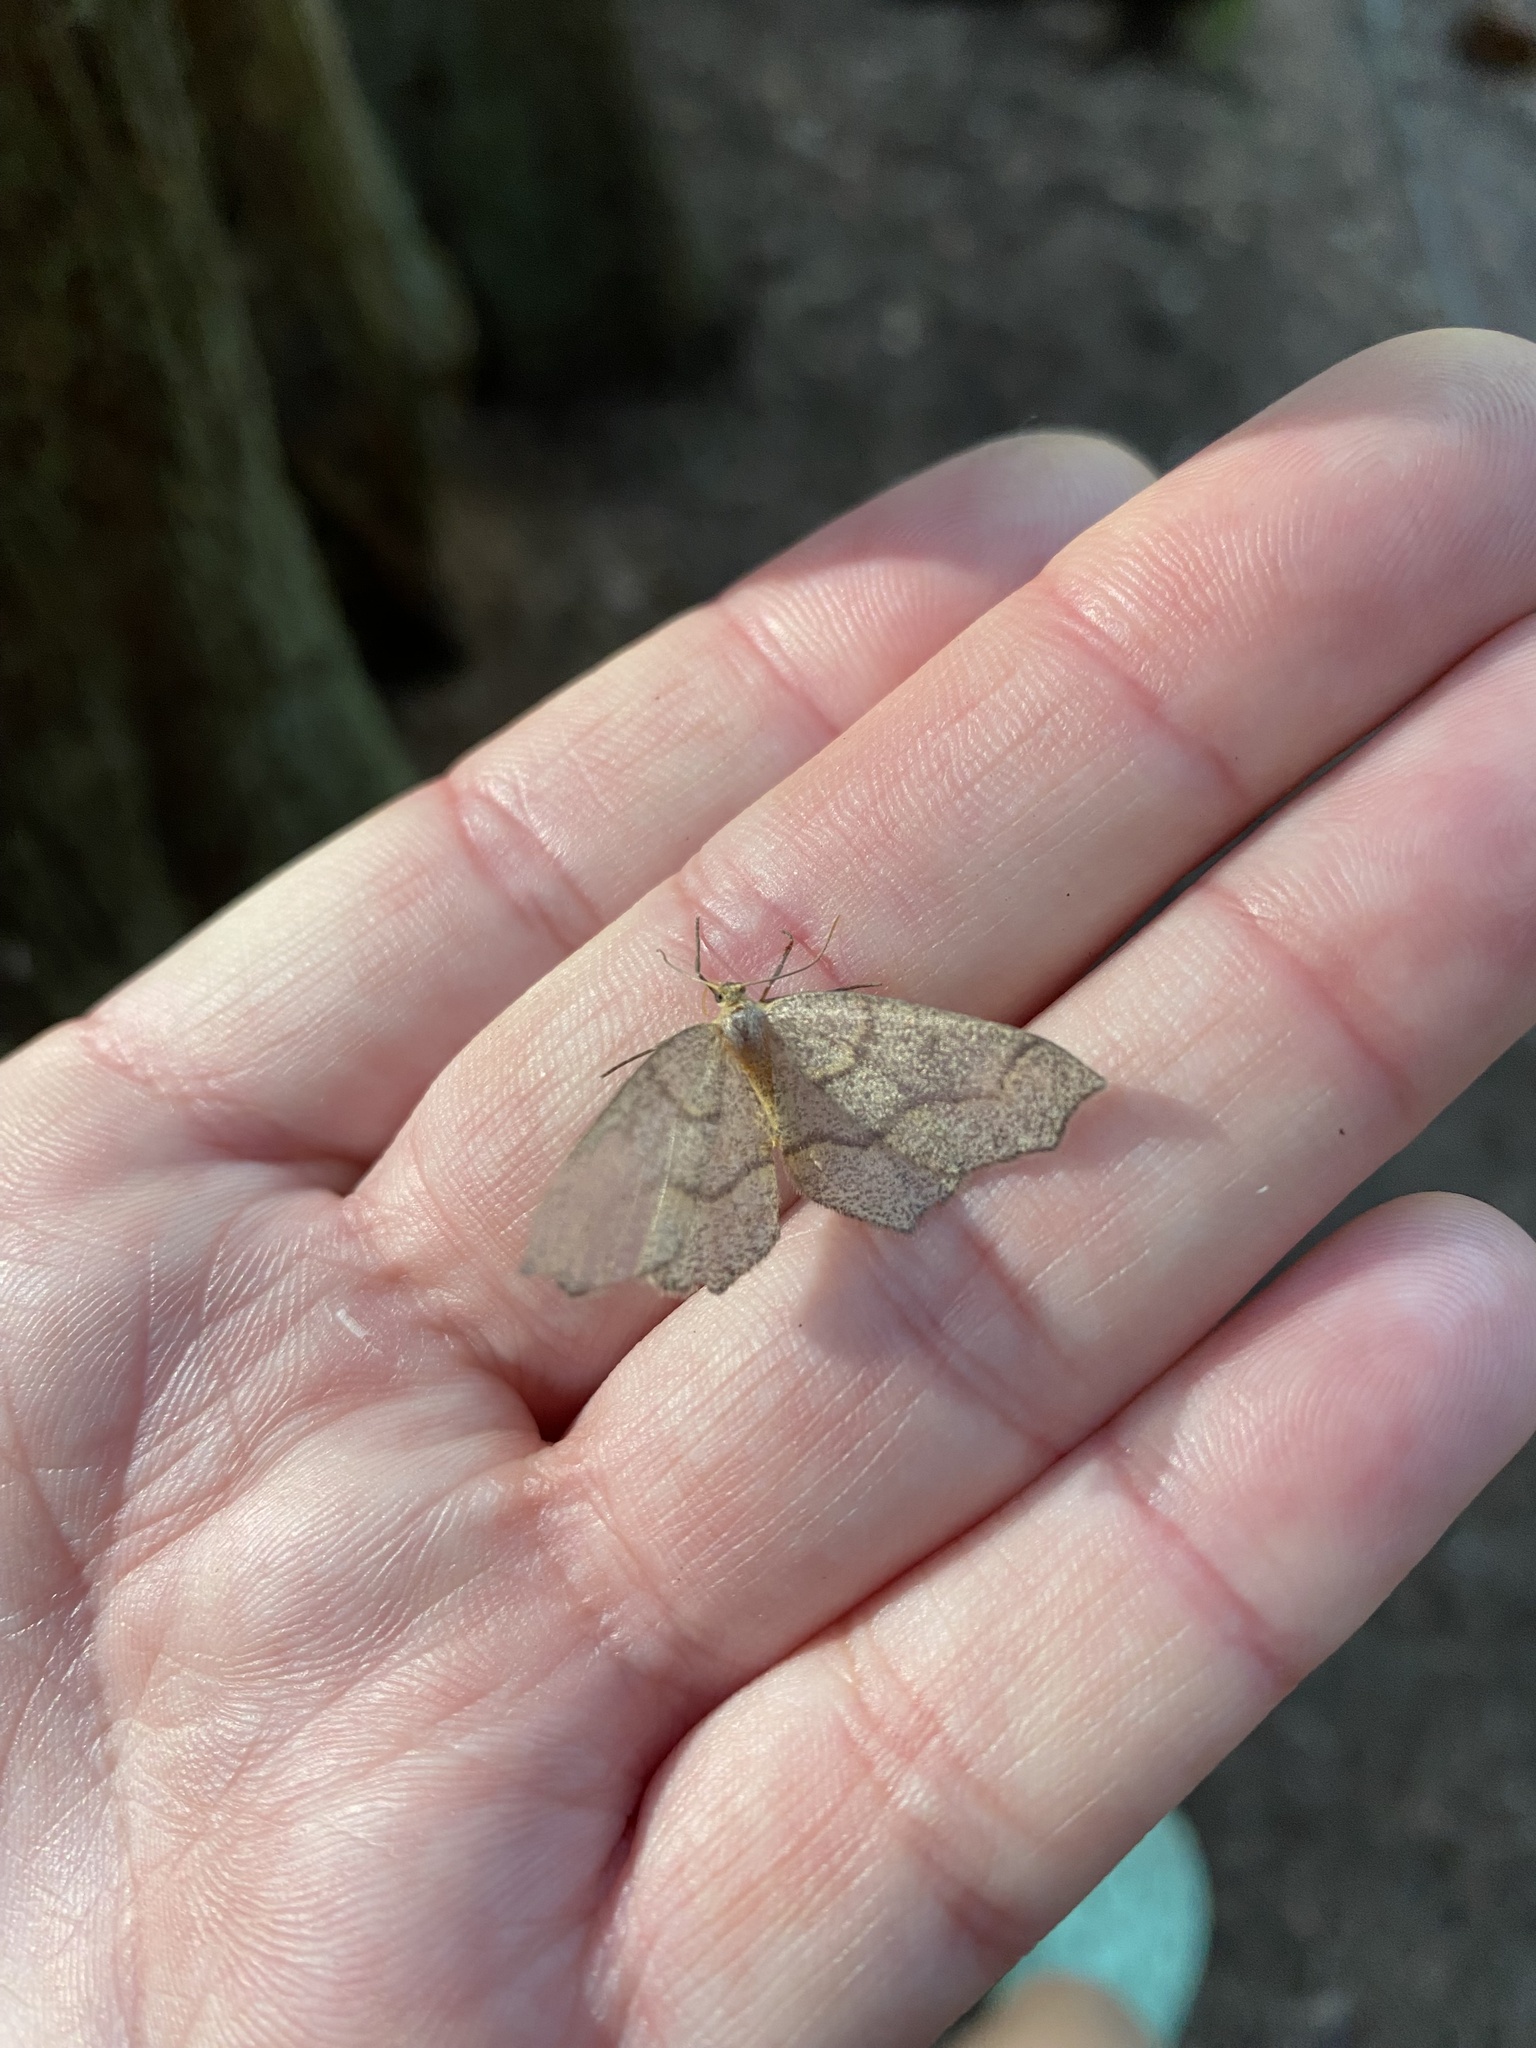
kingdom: Animalia
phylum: Arthropoda
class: Insecta
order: Lepidoptera
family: Geometridae
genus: Lambdina
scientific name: Lambdina fiscellaria
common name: Hemlock looper
